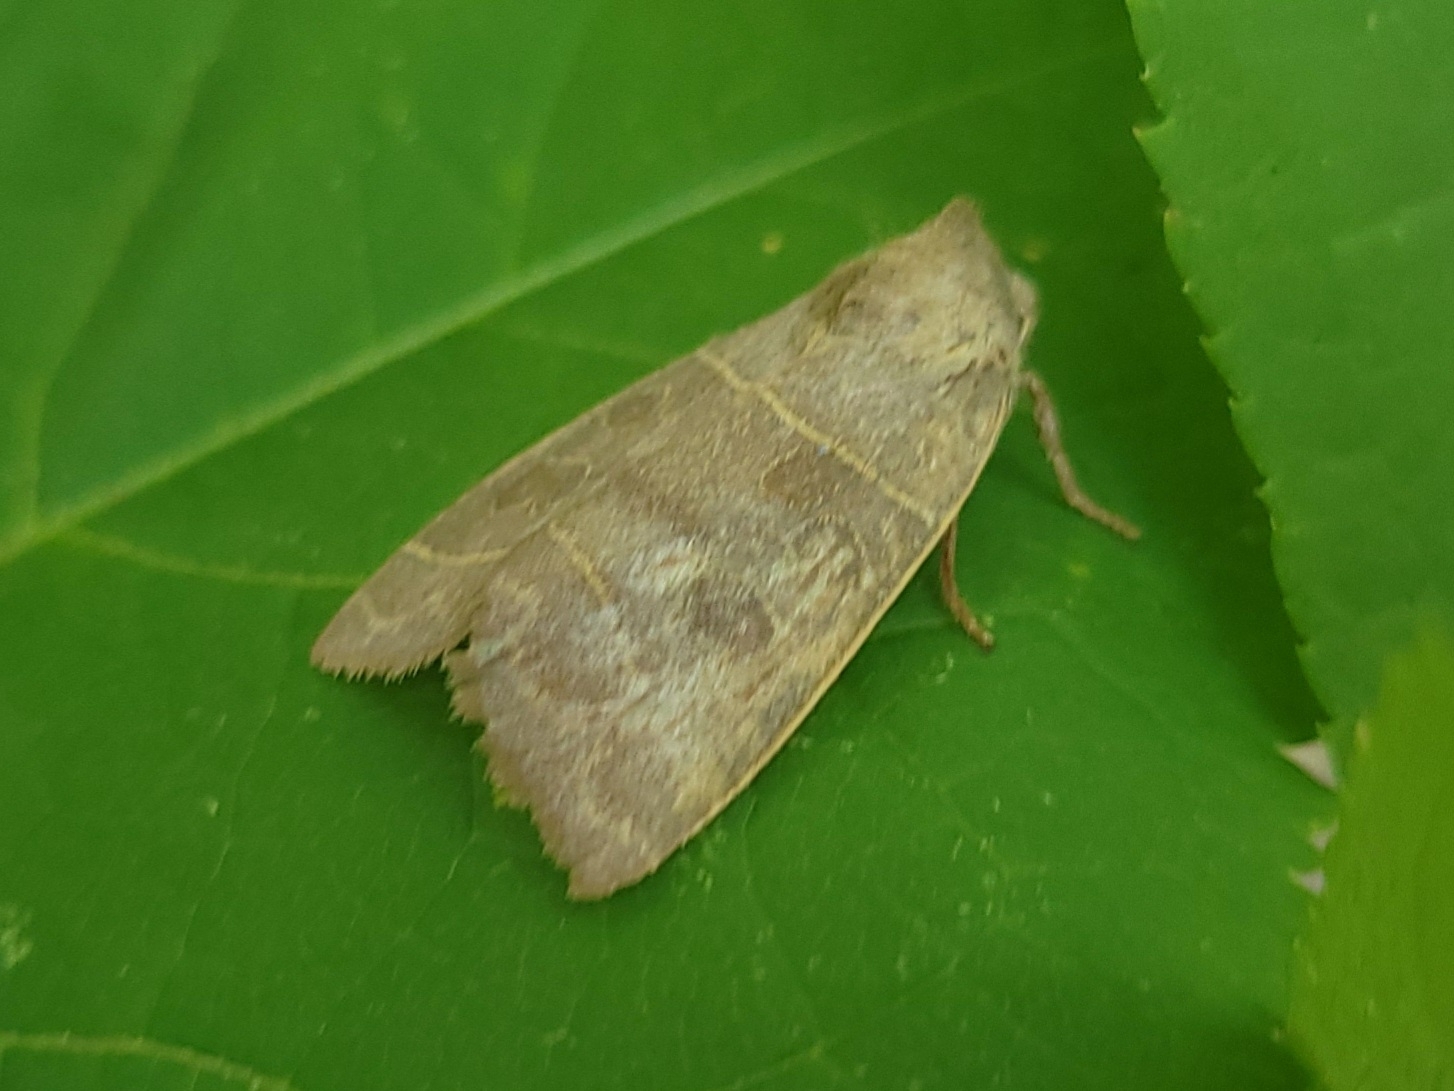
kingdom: Animalia
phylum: Arthropoda
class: Insecta
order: Lepidoptera
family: Noctuidae
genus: Ipimorpha
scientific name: Ipimorpha pleonectusa
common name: Even-lined sallow
